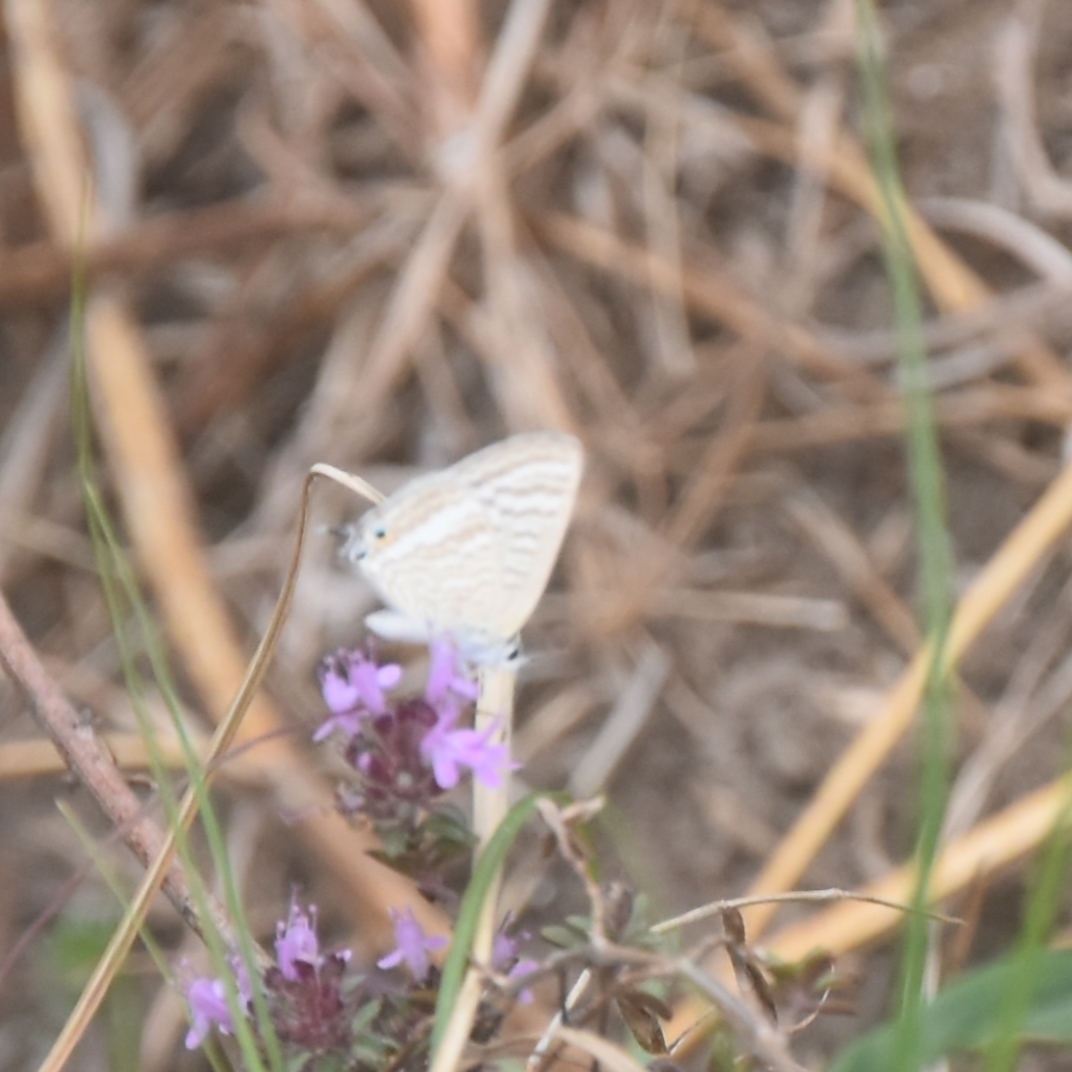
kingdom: Animalia
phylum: Arthropoda
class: Insecta
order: Lepidoptera
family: Lycaenidae
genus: Lampides
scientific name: Lampides boeticus
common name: Long-tailed blue
